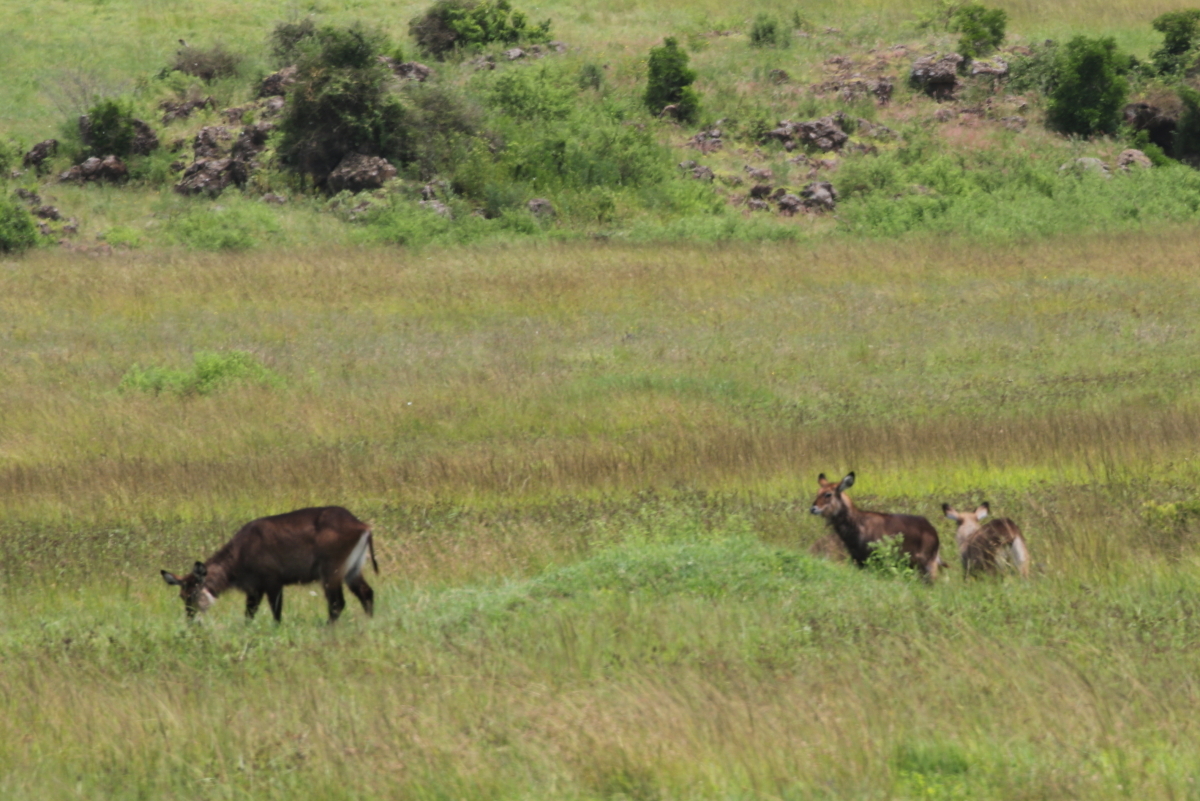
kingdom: Animalia
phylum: Chordata
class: Mammalia
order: Artiodactyla
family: Bovidae
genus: Kobus
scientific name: Kobus ellipsiprymnus
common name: Waterbuck
